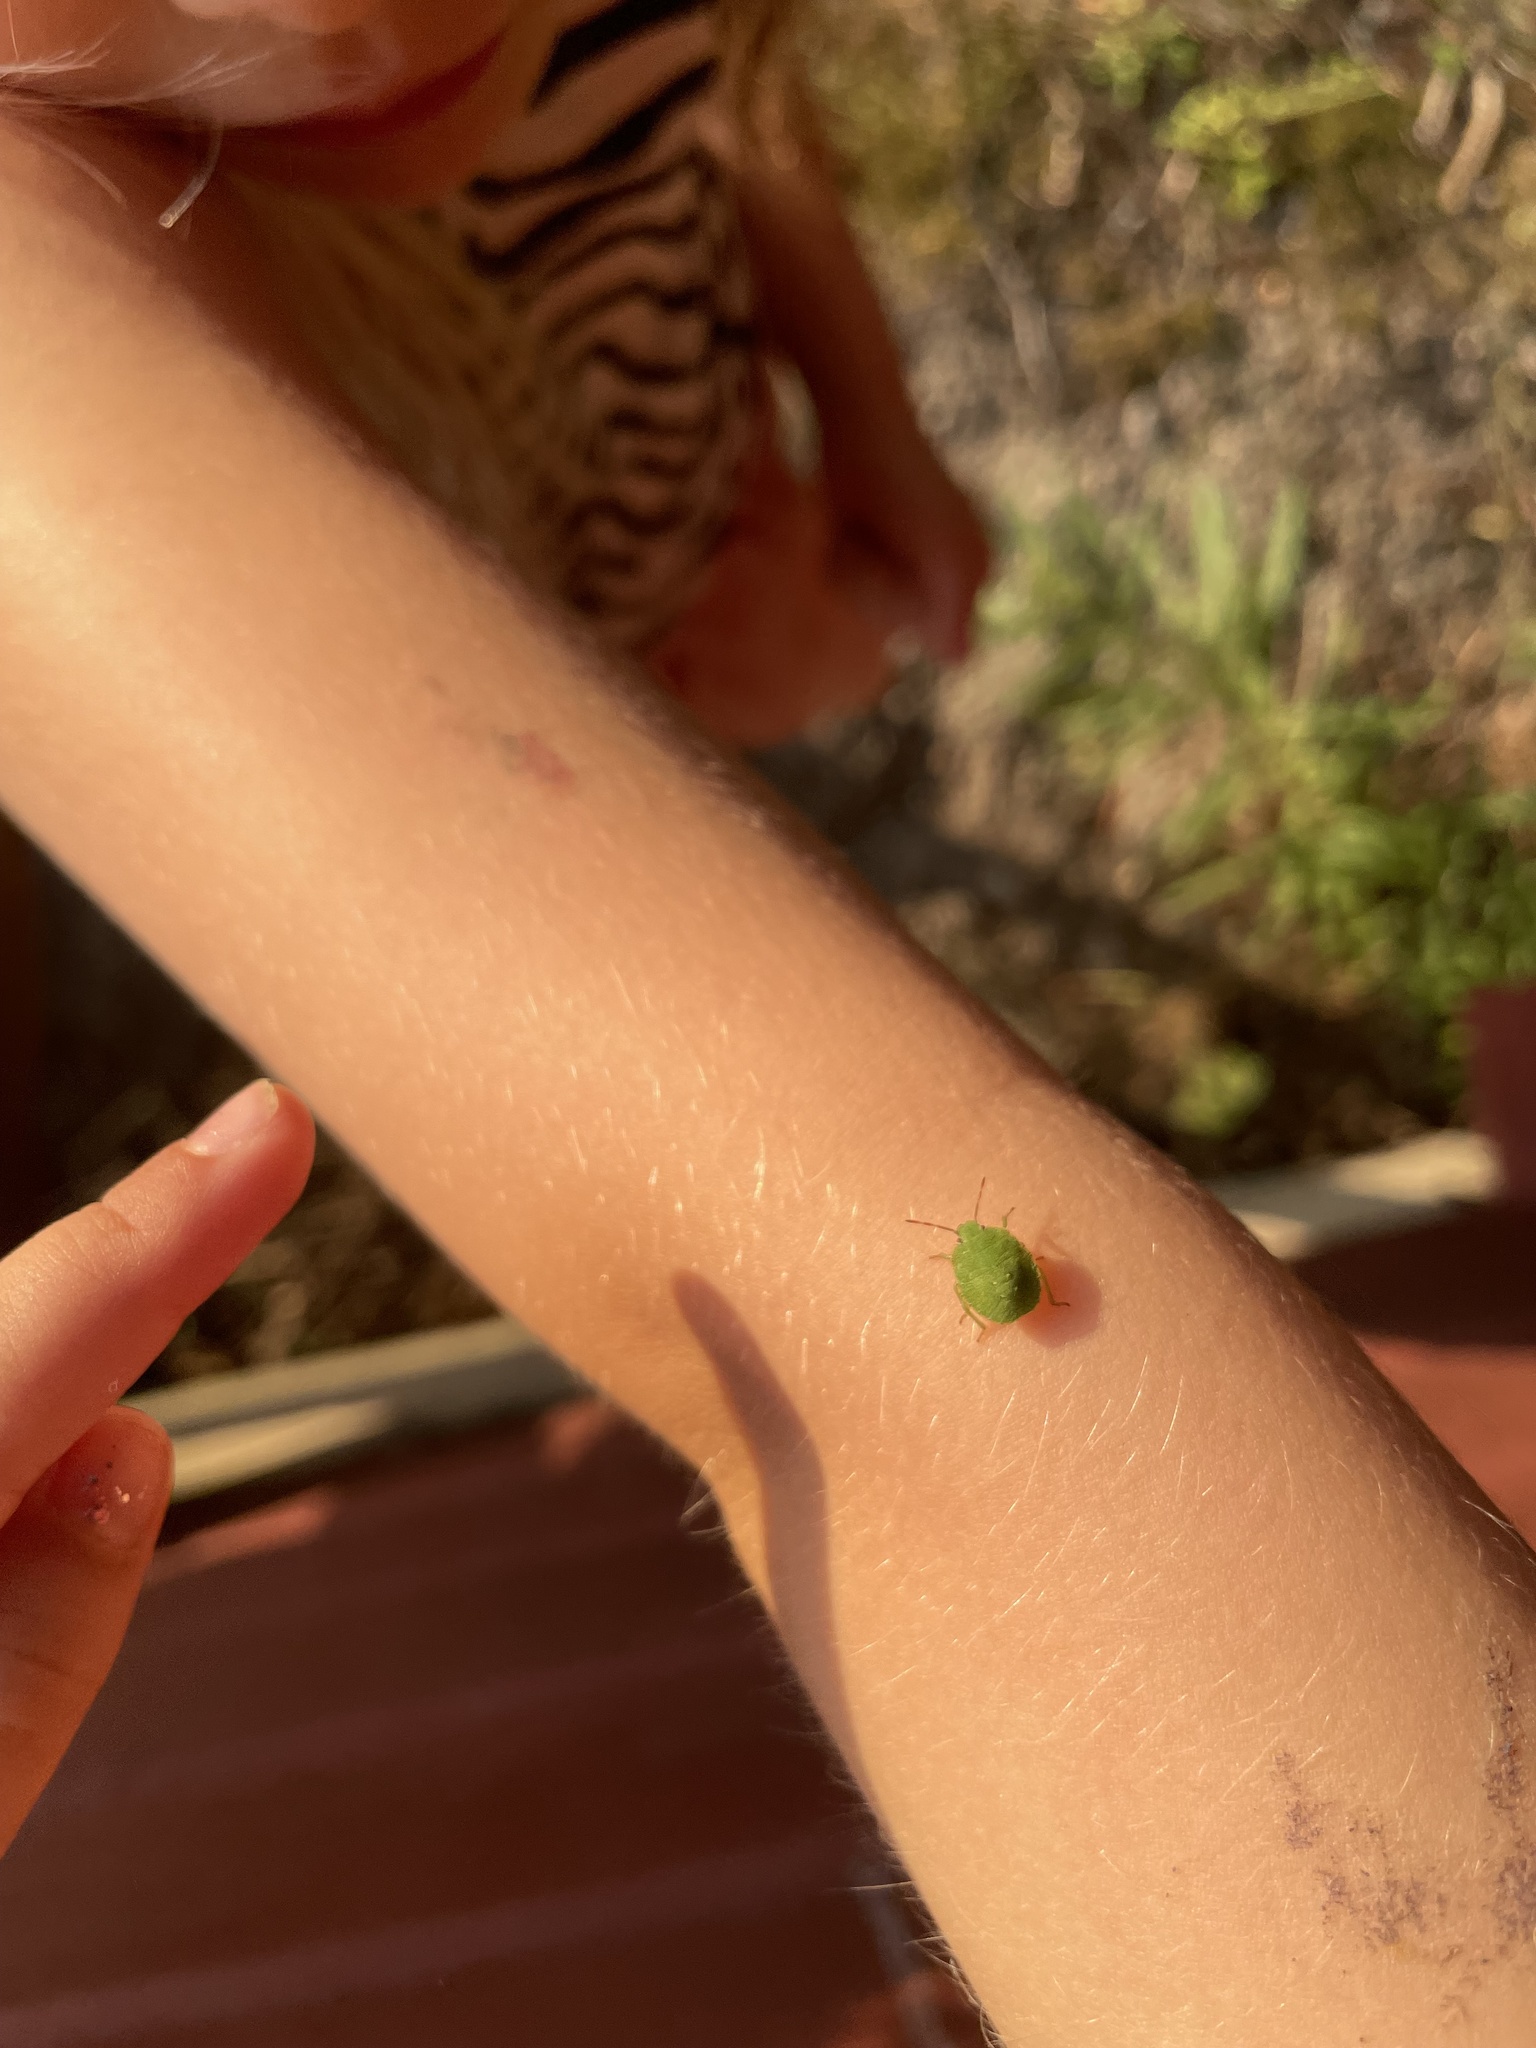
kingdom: Animalia
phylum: Arthropoda
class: Insecta
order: Hemiptera
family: Pentatomidae
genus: Palomena
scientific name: Palomena prasina
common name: Green shieldbug
